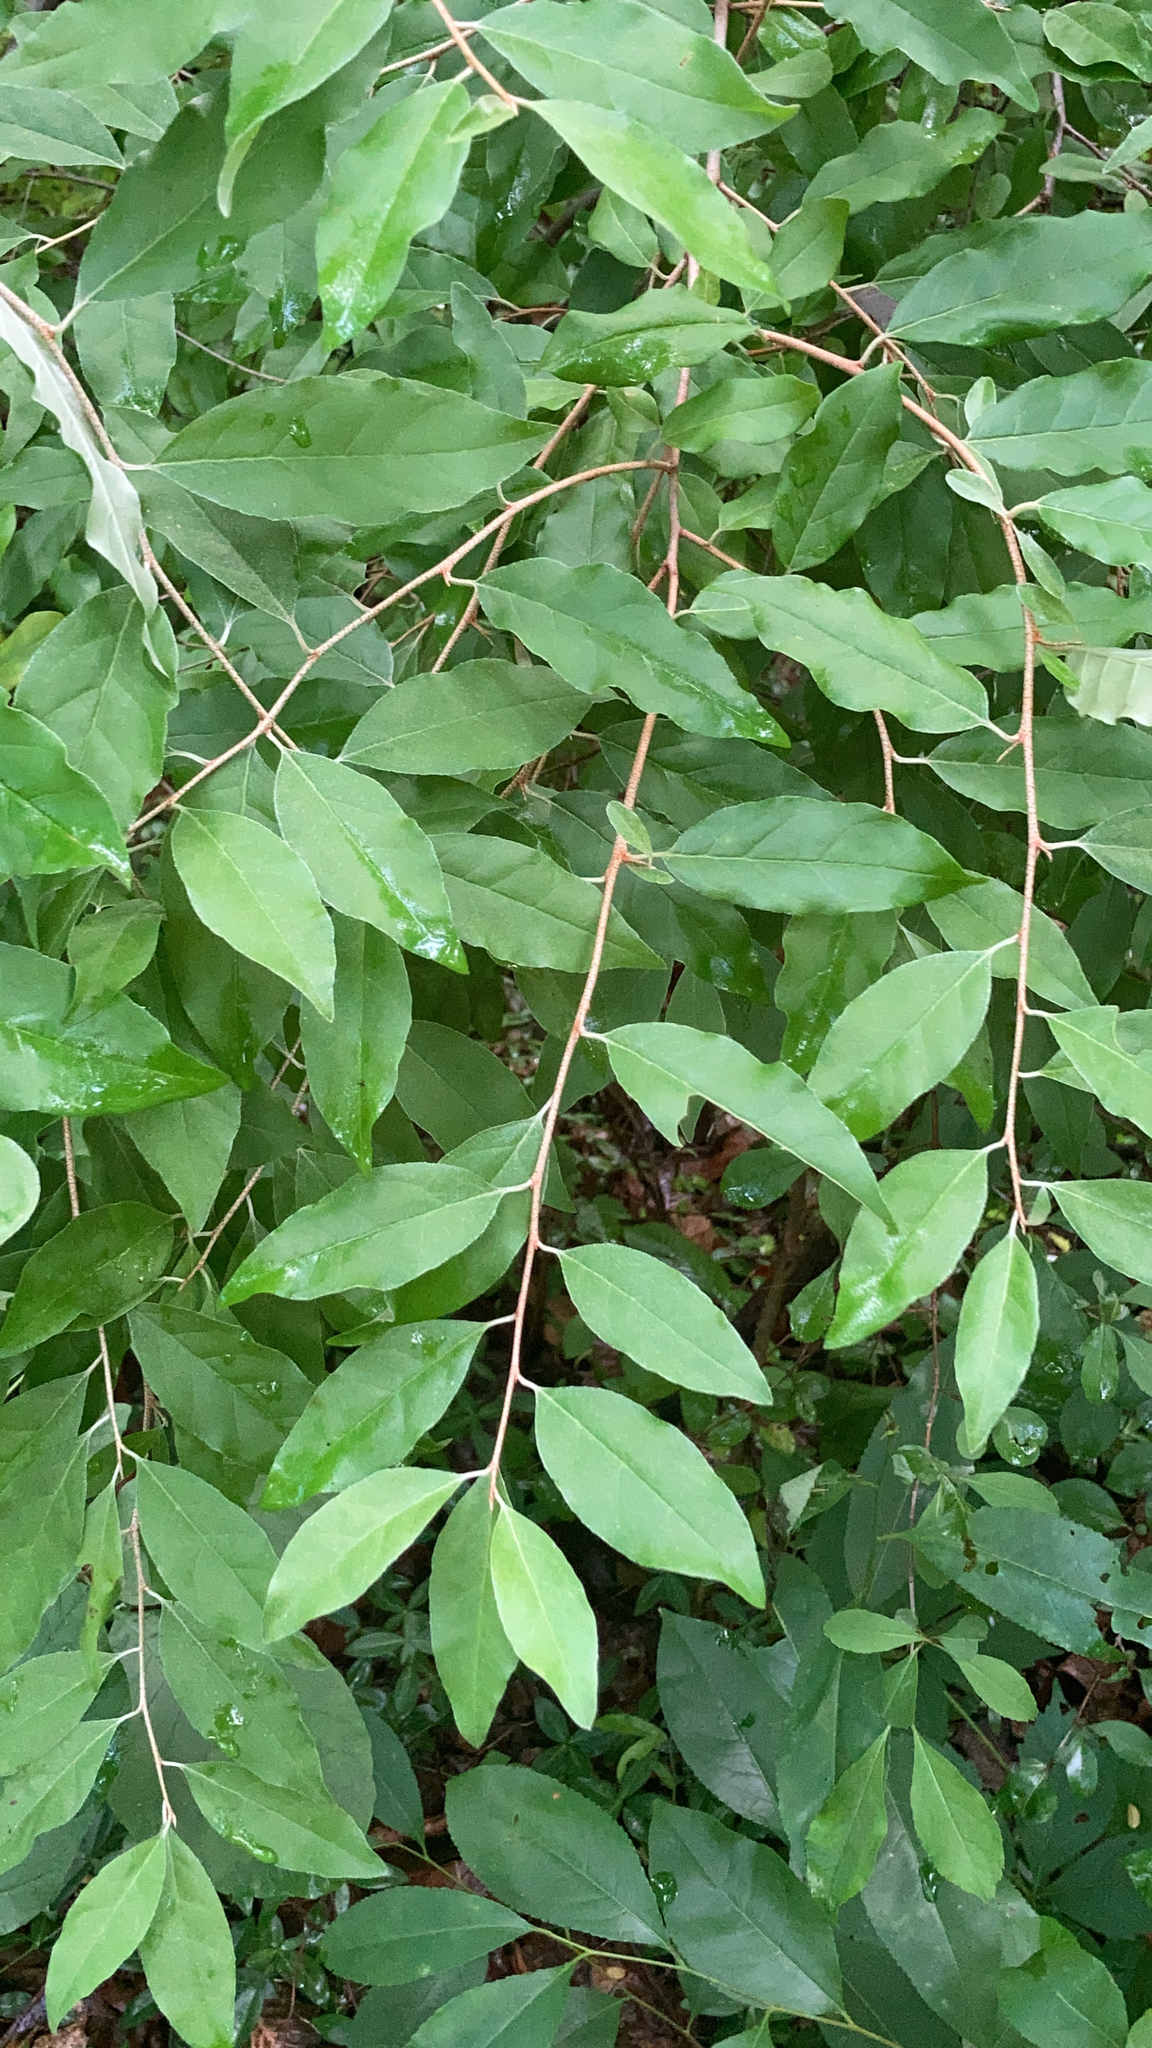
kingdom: Plantae
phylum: Tracheophyta
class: Magnoliopsida
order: Rosales
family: Elaeagnaceae
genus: Elaeagnus
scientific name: Elaeagnus umbellata
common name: Autumn olive
